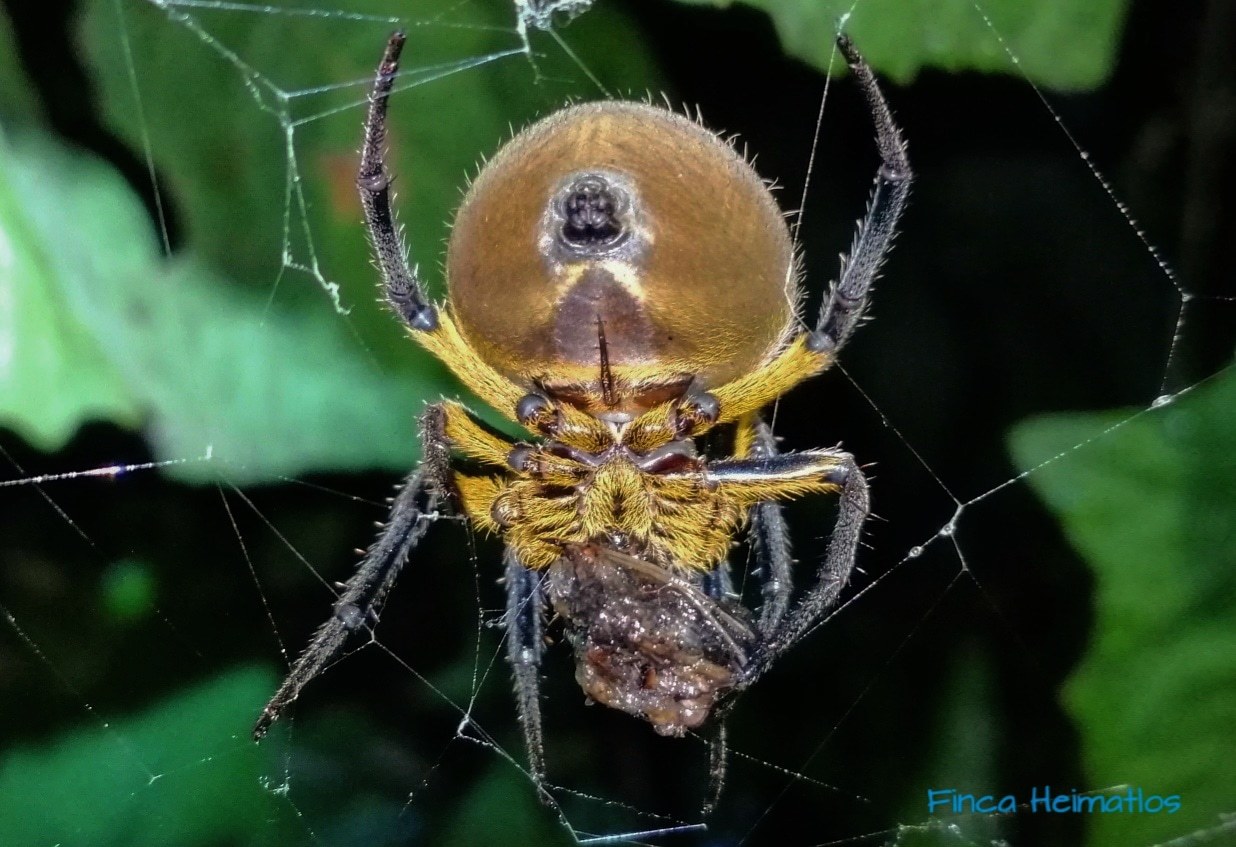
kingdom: Animalia
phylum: Arthropoda
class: Arachnida
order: Araneae
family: Araneidae
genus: Eriophora
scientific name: Eriophora fuliginea
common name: Orb weavers
